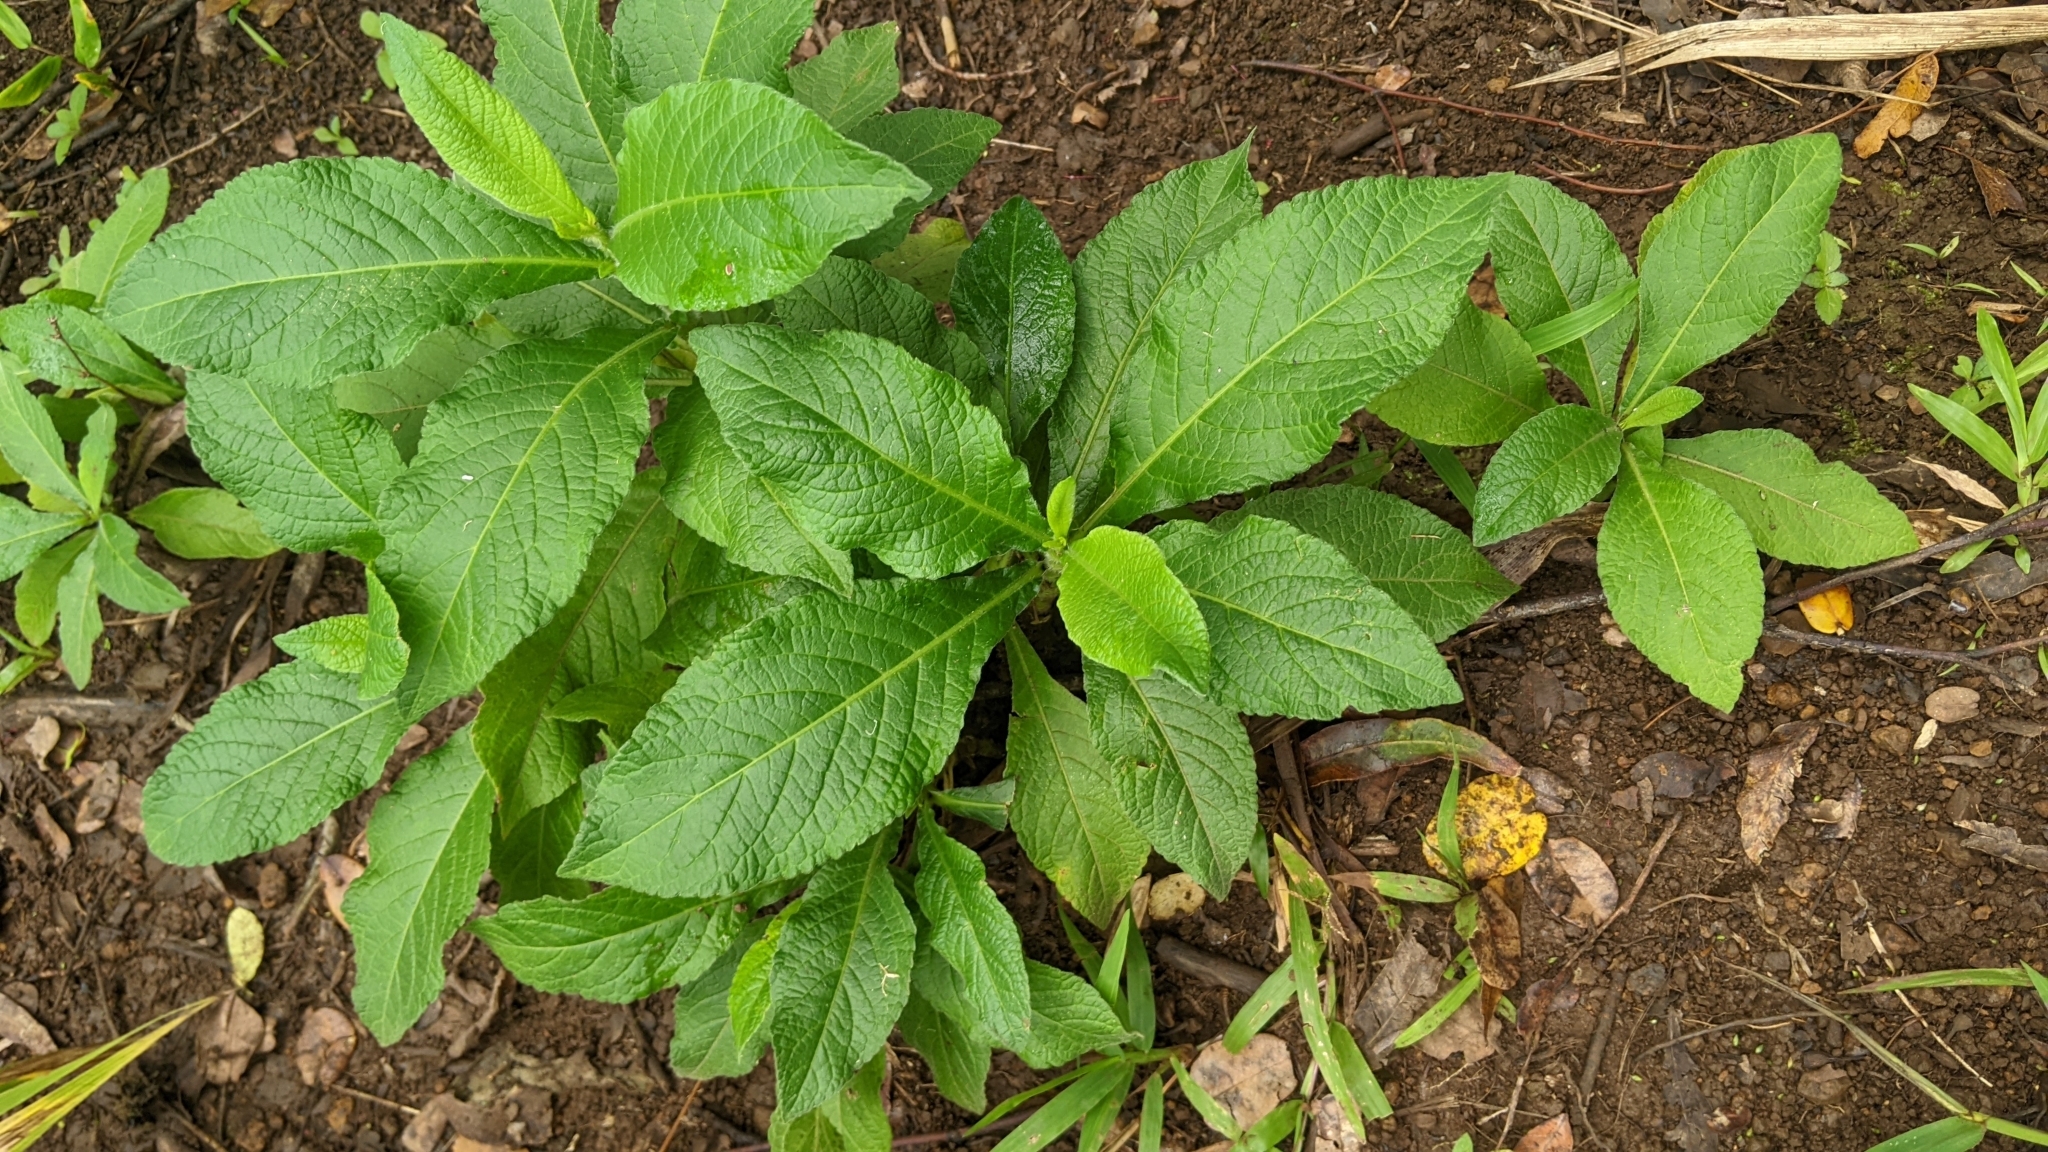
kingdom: Plantae
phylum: Tracheophyta
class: Magnoliopsida
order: Asterales
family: Asteraceae
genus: Elephantopus
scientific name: Elephantopus mollis
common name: Soft elephantsfoot
